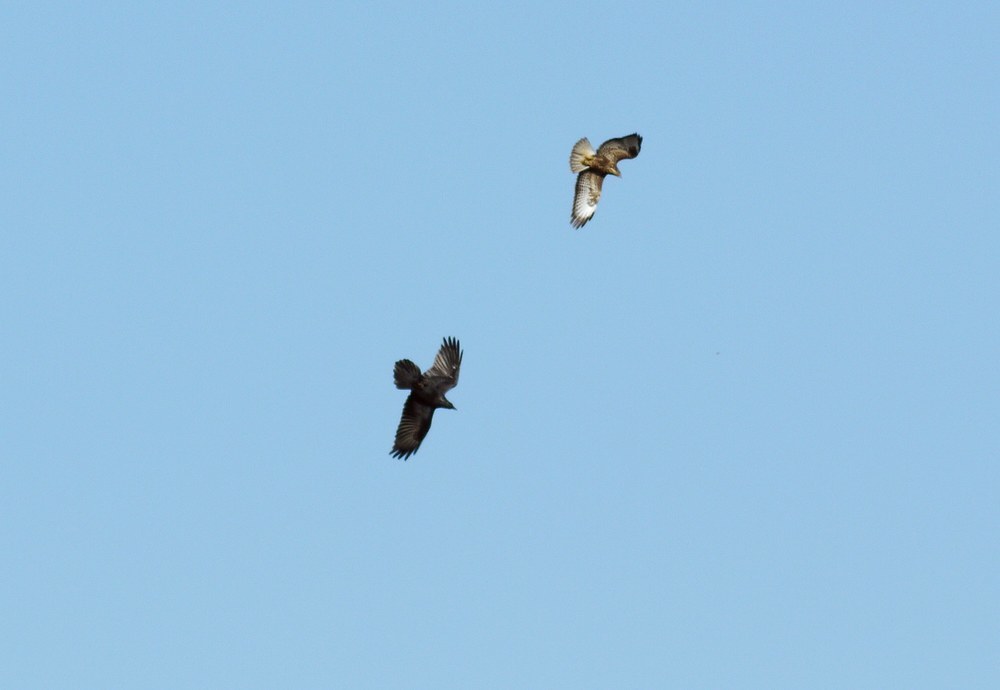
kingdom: Animalia
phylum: Chordata
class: Aves
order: Accipitriformes
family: Accipitridae
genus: Buteo
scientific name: Buteo buteo
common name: Common buzzard
